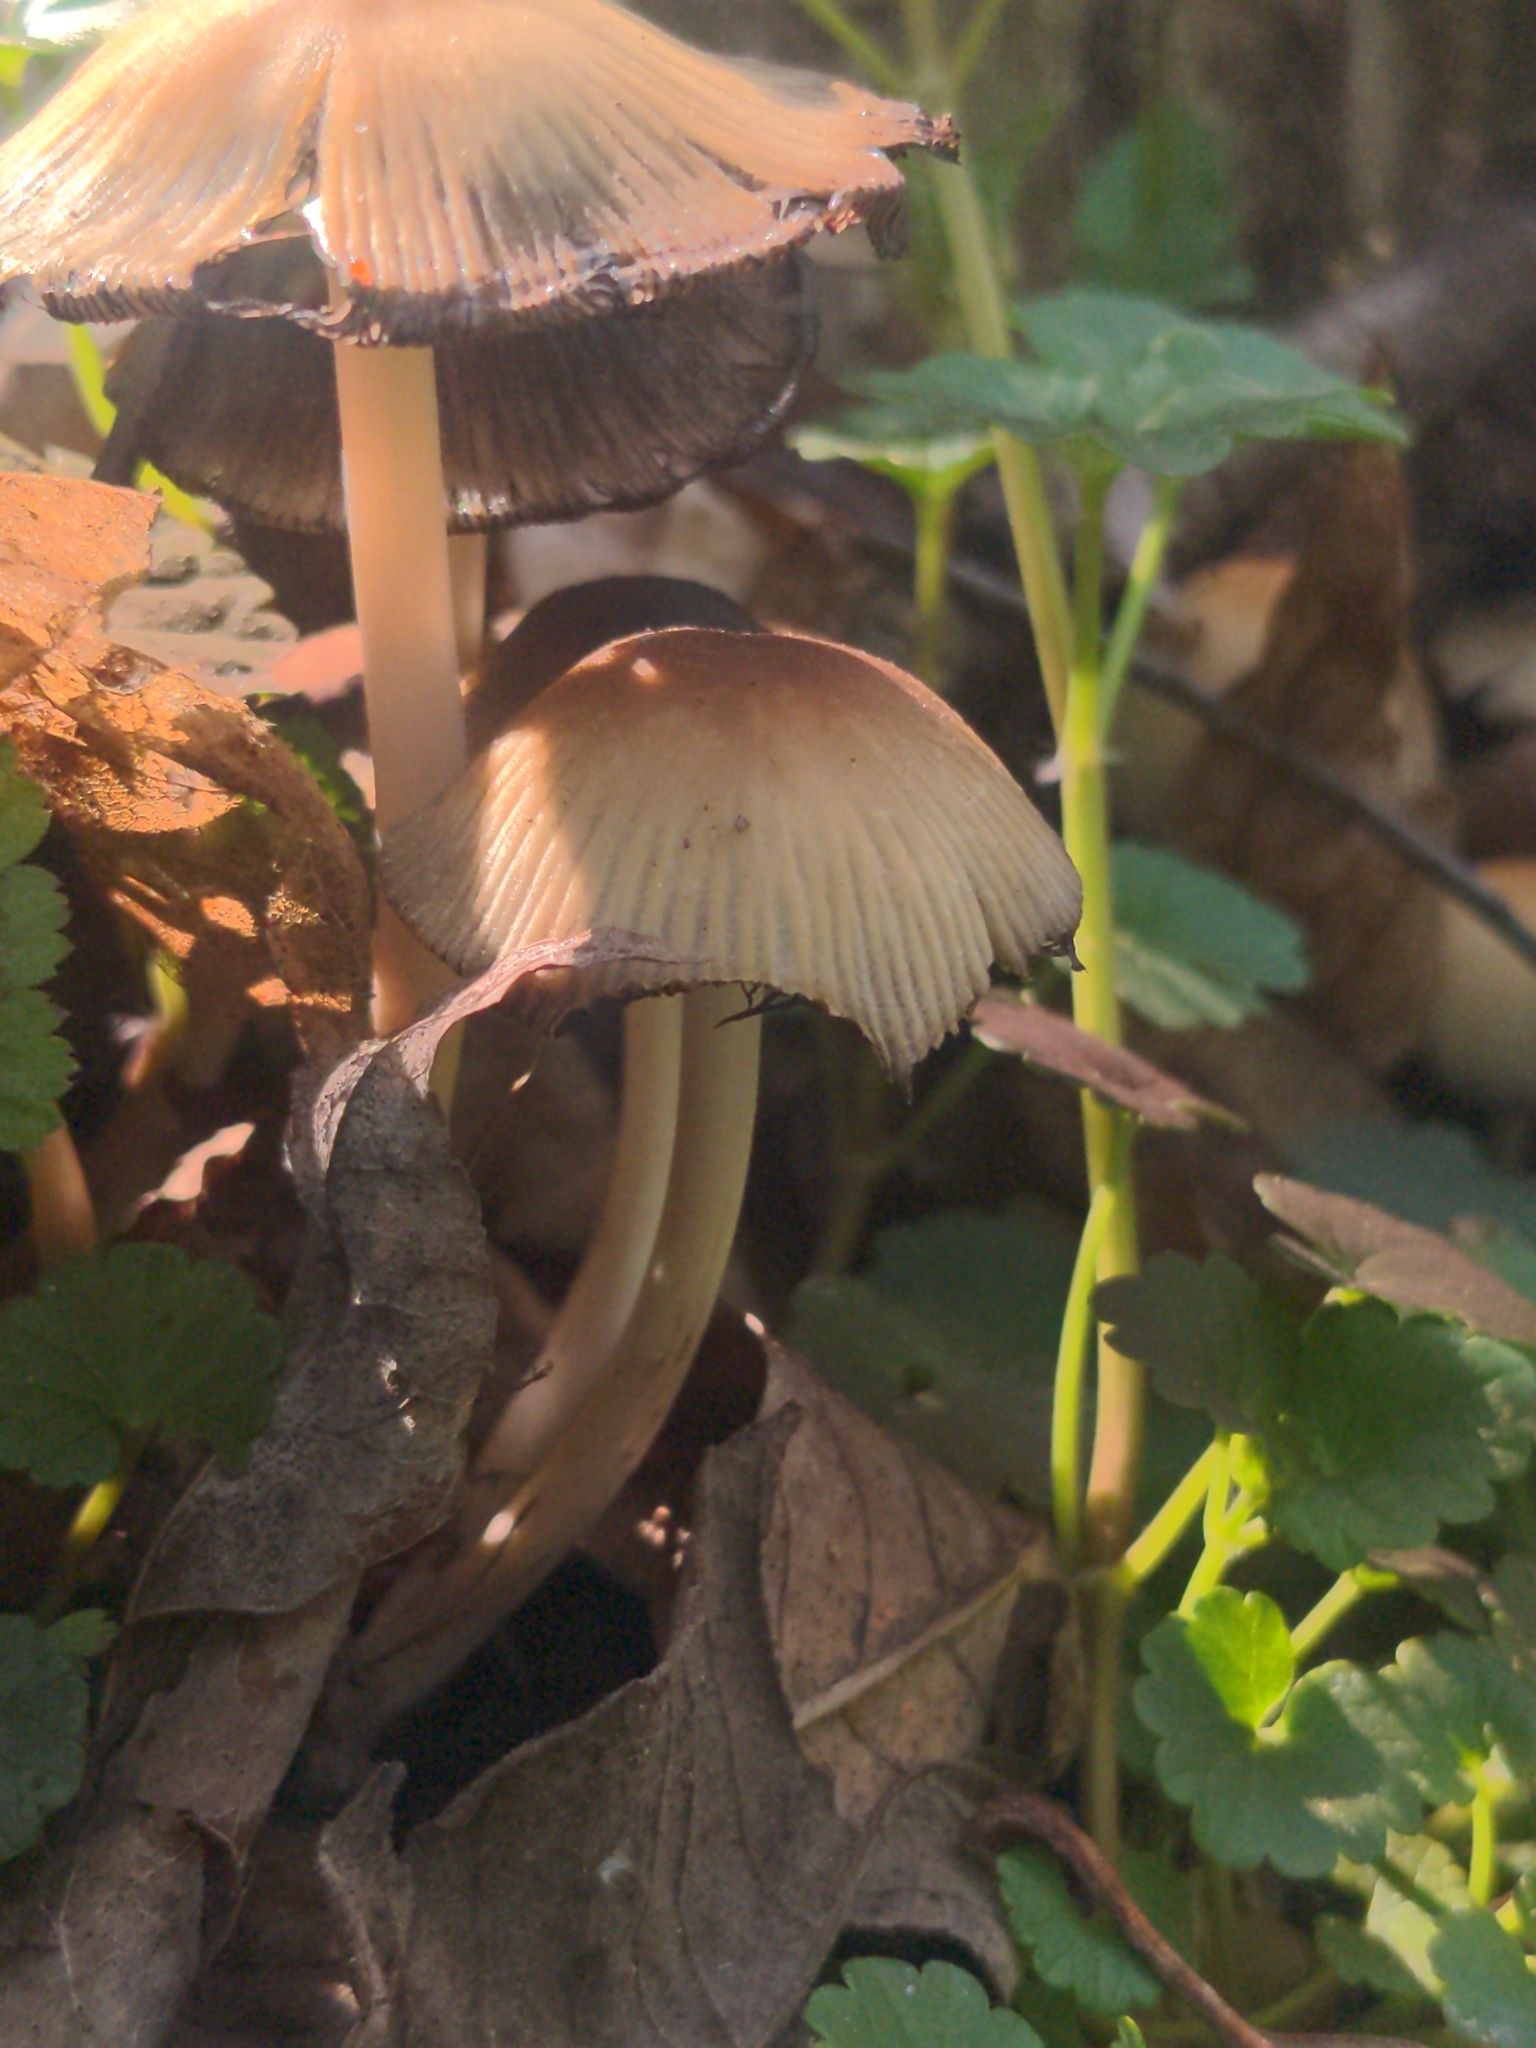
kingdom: Fungi
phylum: Basidiomycota
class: Agaricomycetes
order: Agaricales
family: Psathyrellaceae
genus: Coprinellus
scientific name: Coprinellus micaceus
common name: Glistening ink-cap
